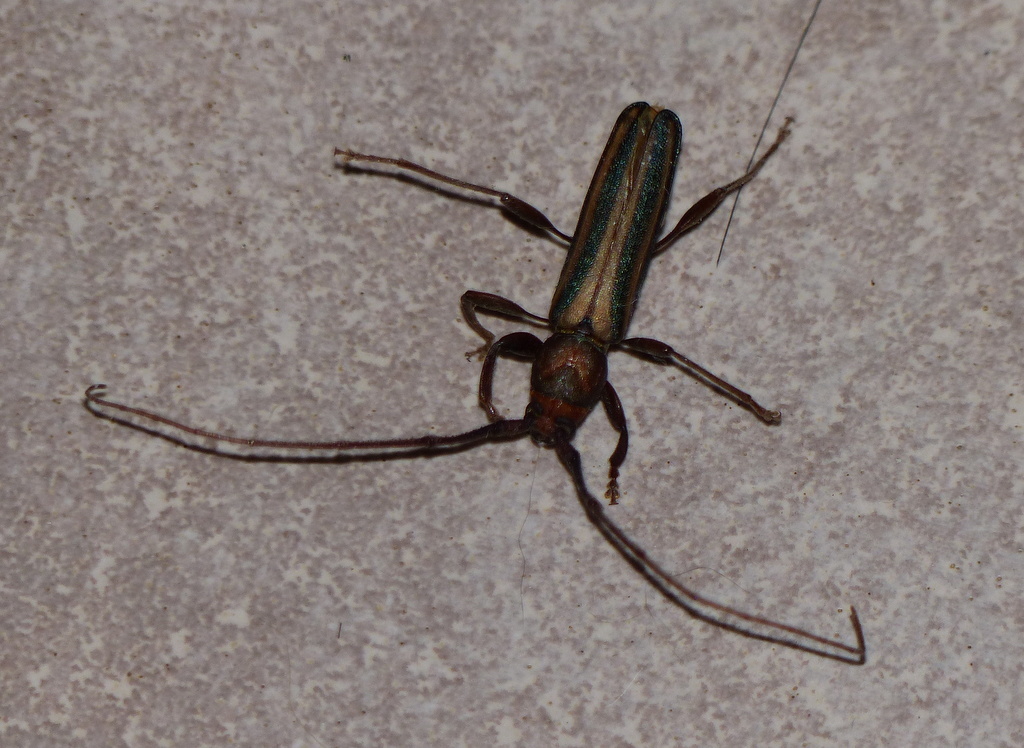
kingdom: Animalia
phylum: Arthropoda
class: Insecta
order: Coleoptera
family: Cerambycidae
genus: Xystrocera
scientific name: Xystrocera dispar
